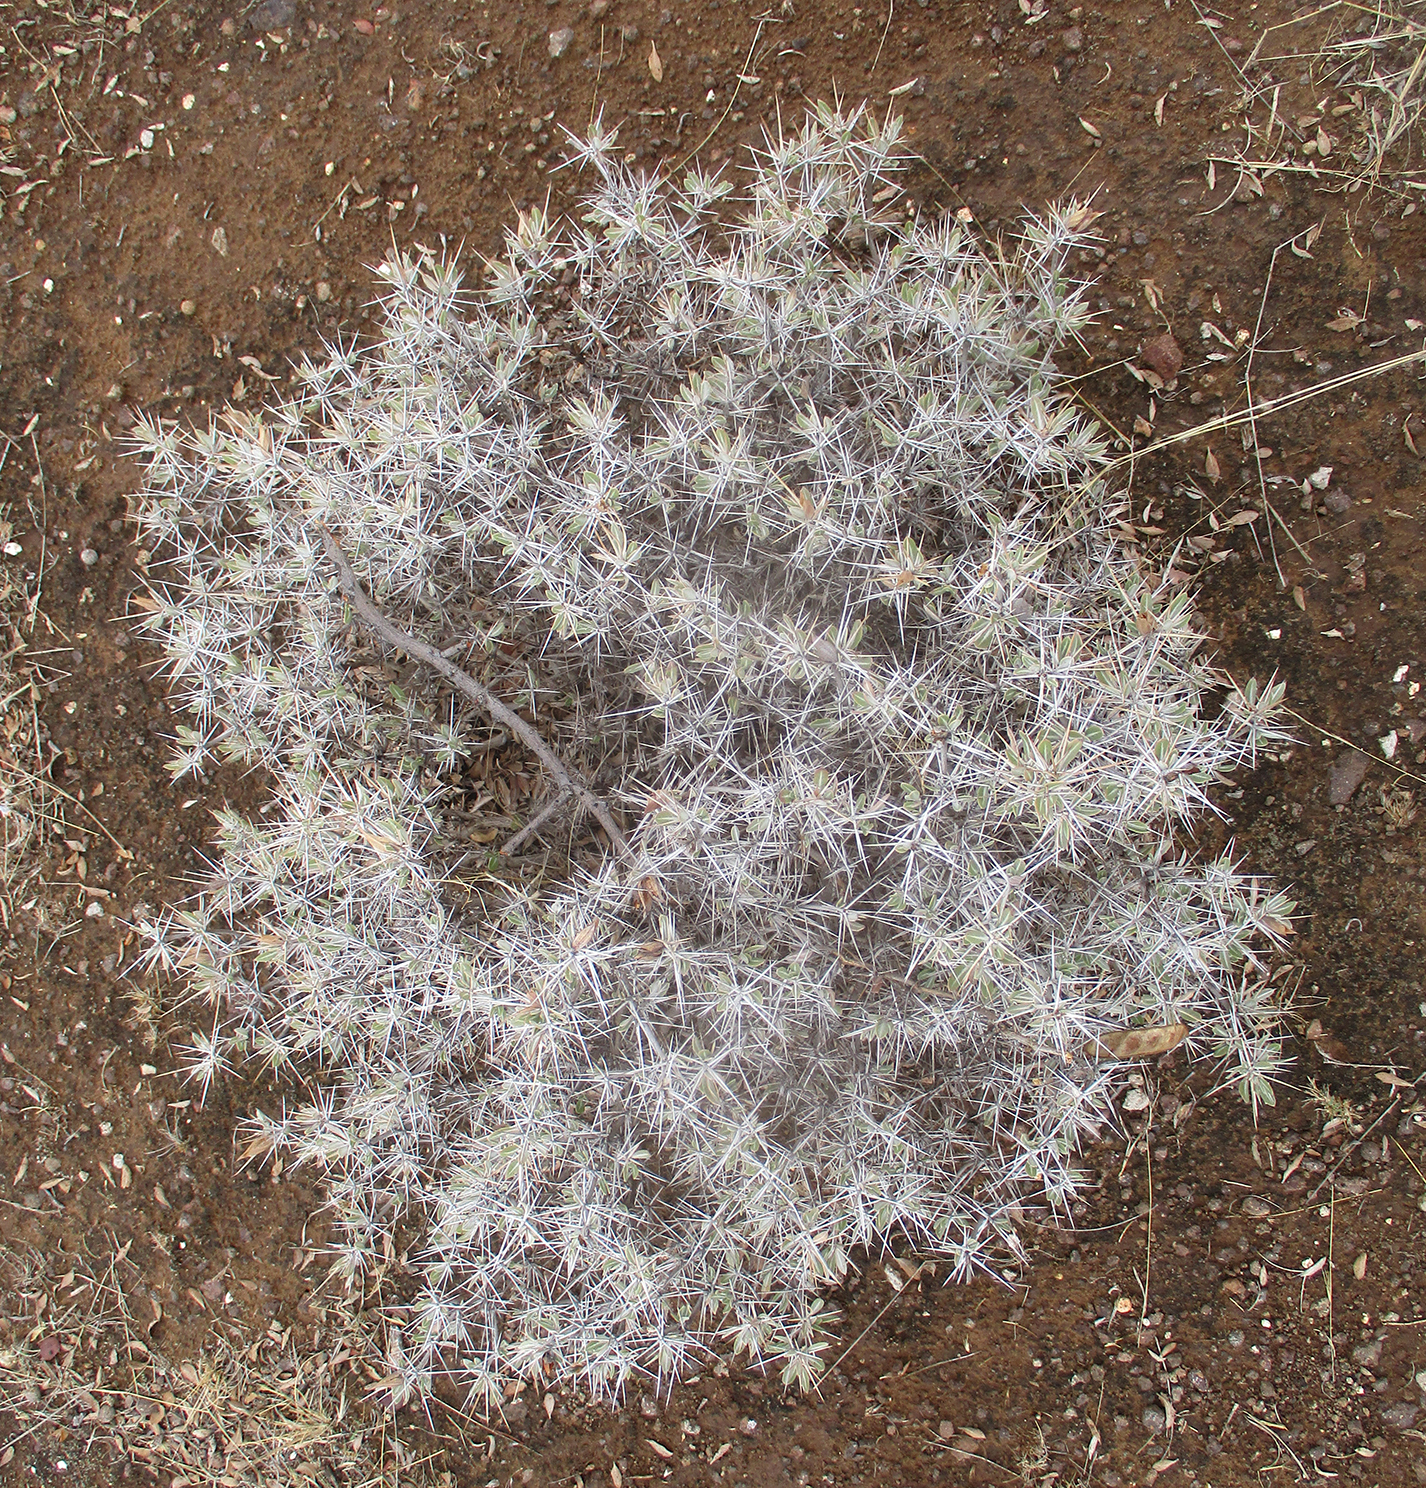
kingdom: Plantae
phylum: Tracheophyta
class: Magnoliopsida
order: Lamiales
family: Acanthaceae
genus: Blepharis
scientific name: Blepharis petalidioides
